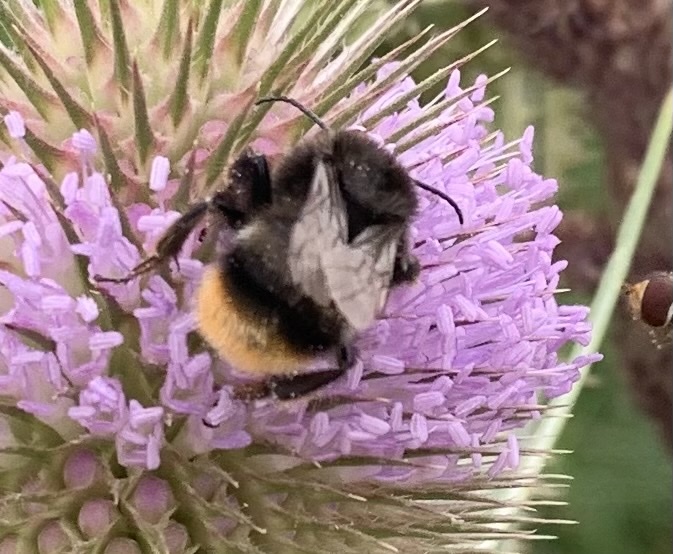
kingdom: Animalia
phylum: Arthropoda
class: Insecta
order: Hymenoptera
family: Apidae
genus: Bombus
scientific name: Bombus ruderarius
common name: Red-shanked carder-bee
